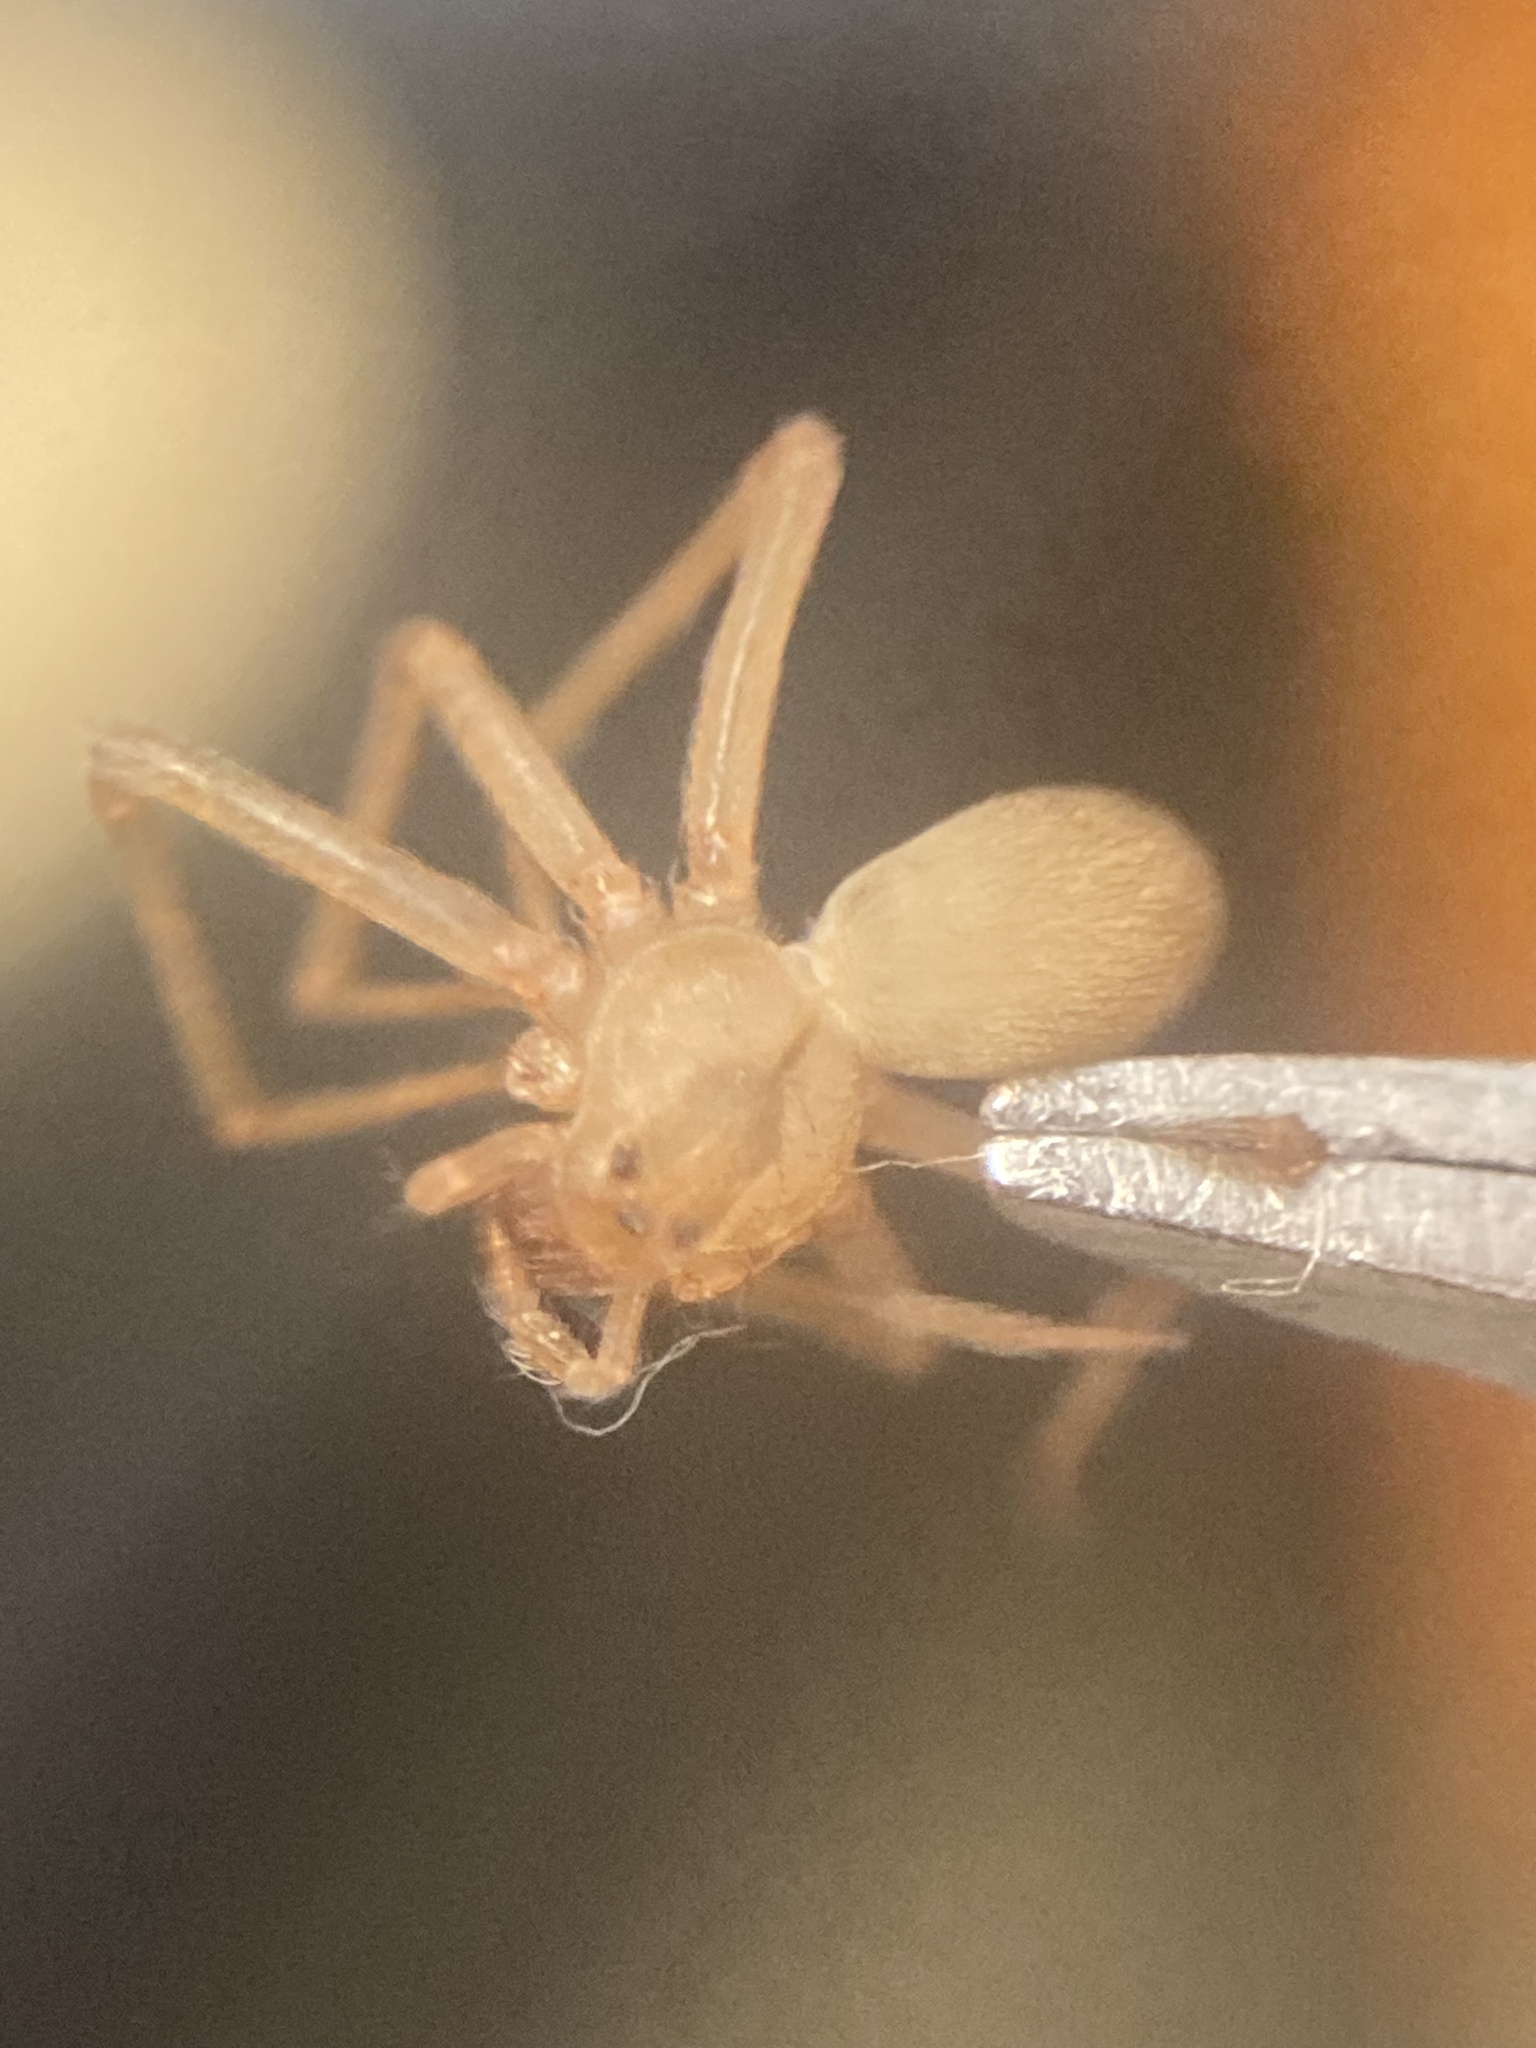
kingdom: Animalia
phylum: Arthropoda
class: Arachnida
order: Araneae
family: Sicariidae
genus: Loxosceles
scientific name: Loxosceles reclusa
